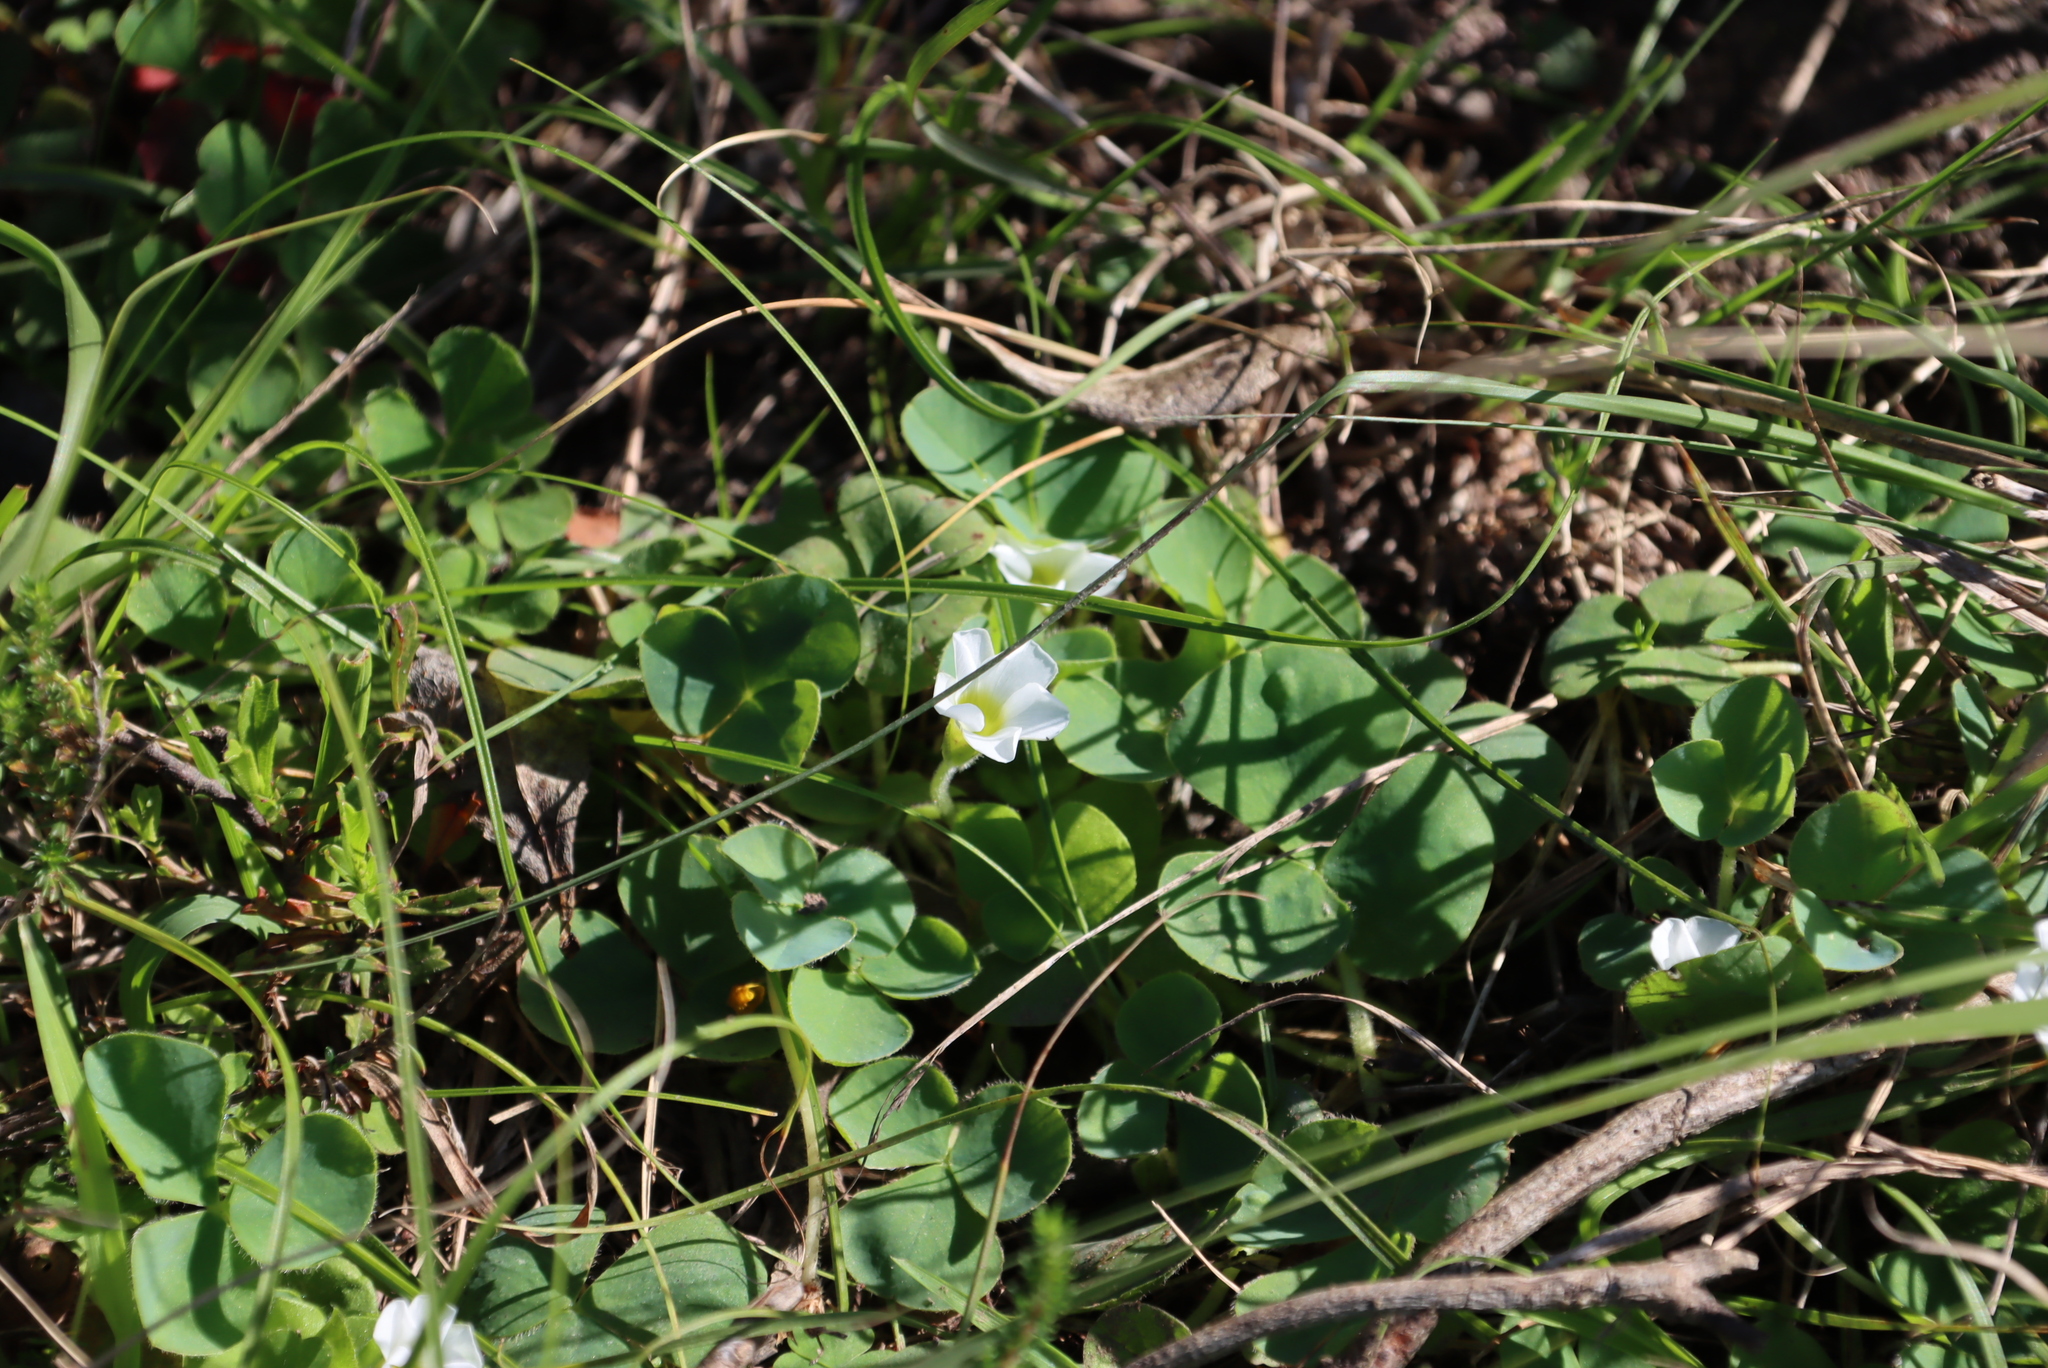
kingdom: Plantae
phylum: Tracheophyta
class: Magnoliopsida
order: Oxalidales
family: Oxalidaceae
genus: Oxalis
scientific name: Oxalis purpurea
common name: Purple woodsorrel
